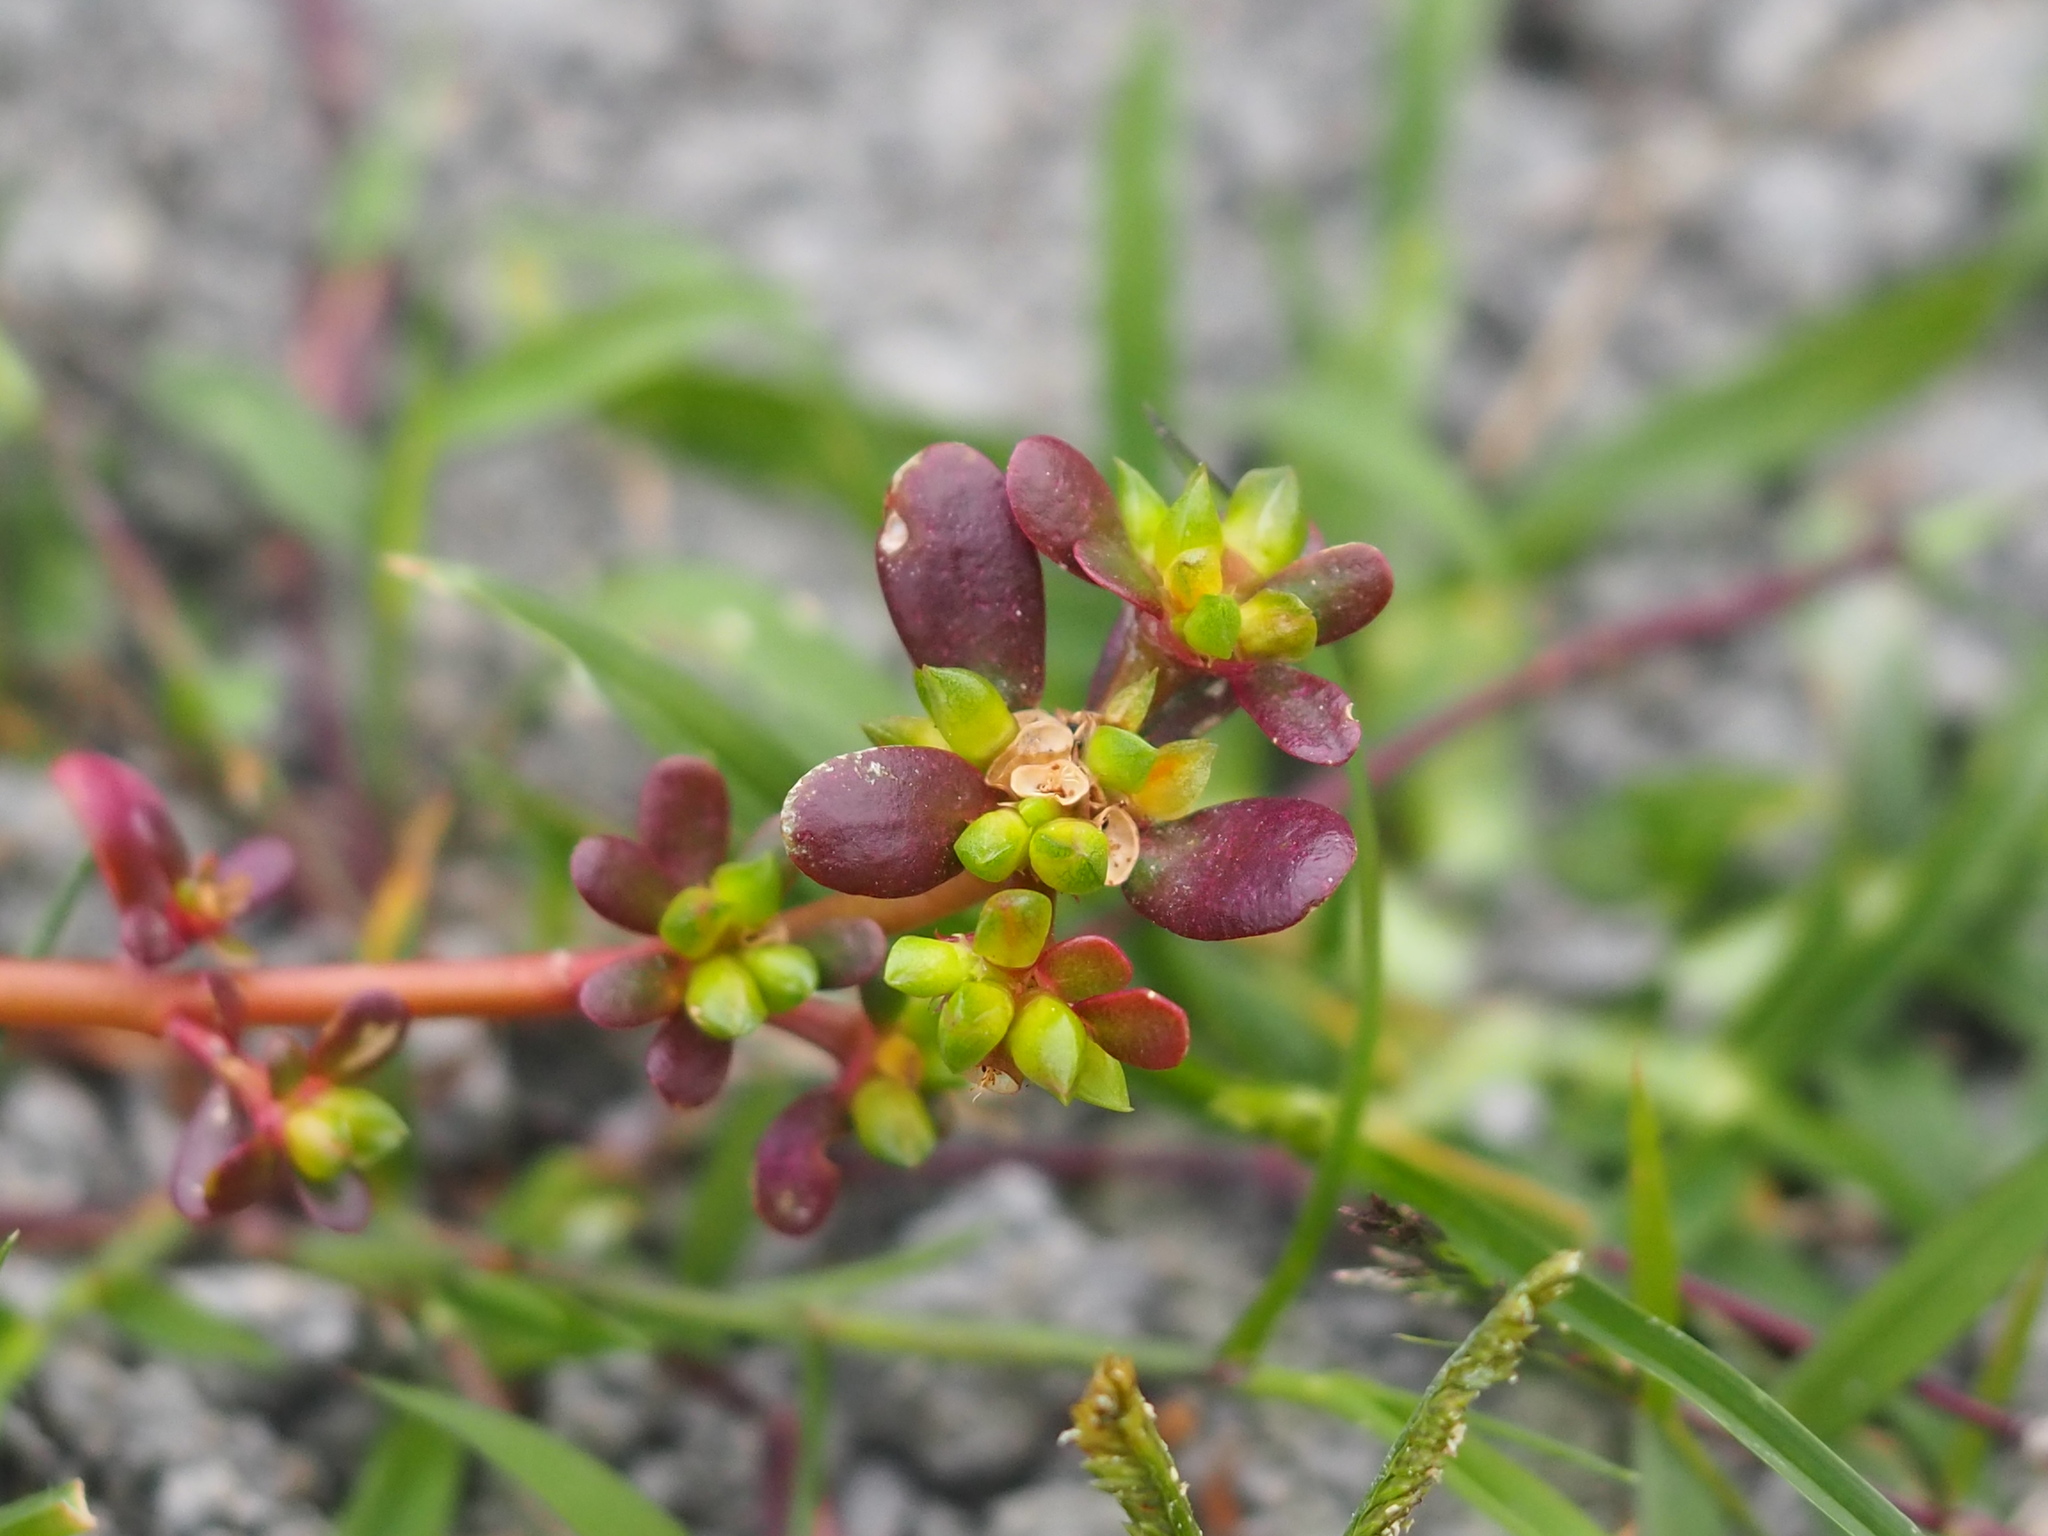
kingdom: Plantae
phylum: Tracheophyta
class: Magnoliopsida
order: Caryophyllales
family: Portulacaceae
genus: Portulaca
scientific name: Portulaca oleracea
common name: Common purslane
